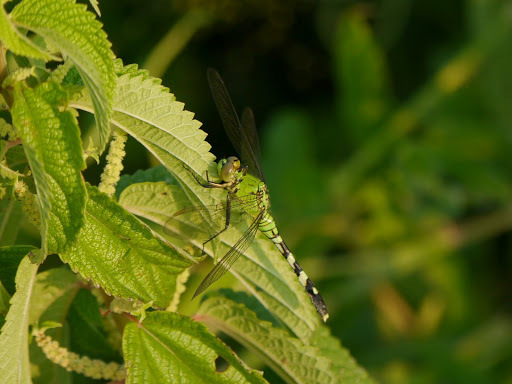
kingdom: Animalia
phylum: Arthropoda
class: Insecta
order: Odonata
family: Libellulidae
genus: Erythemis
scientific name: Erythemis simplicicollis
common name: Eastern pondhawk
